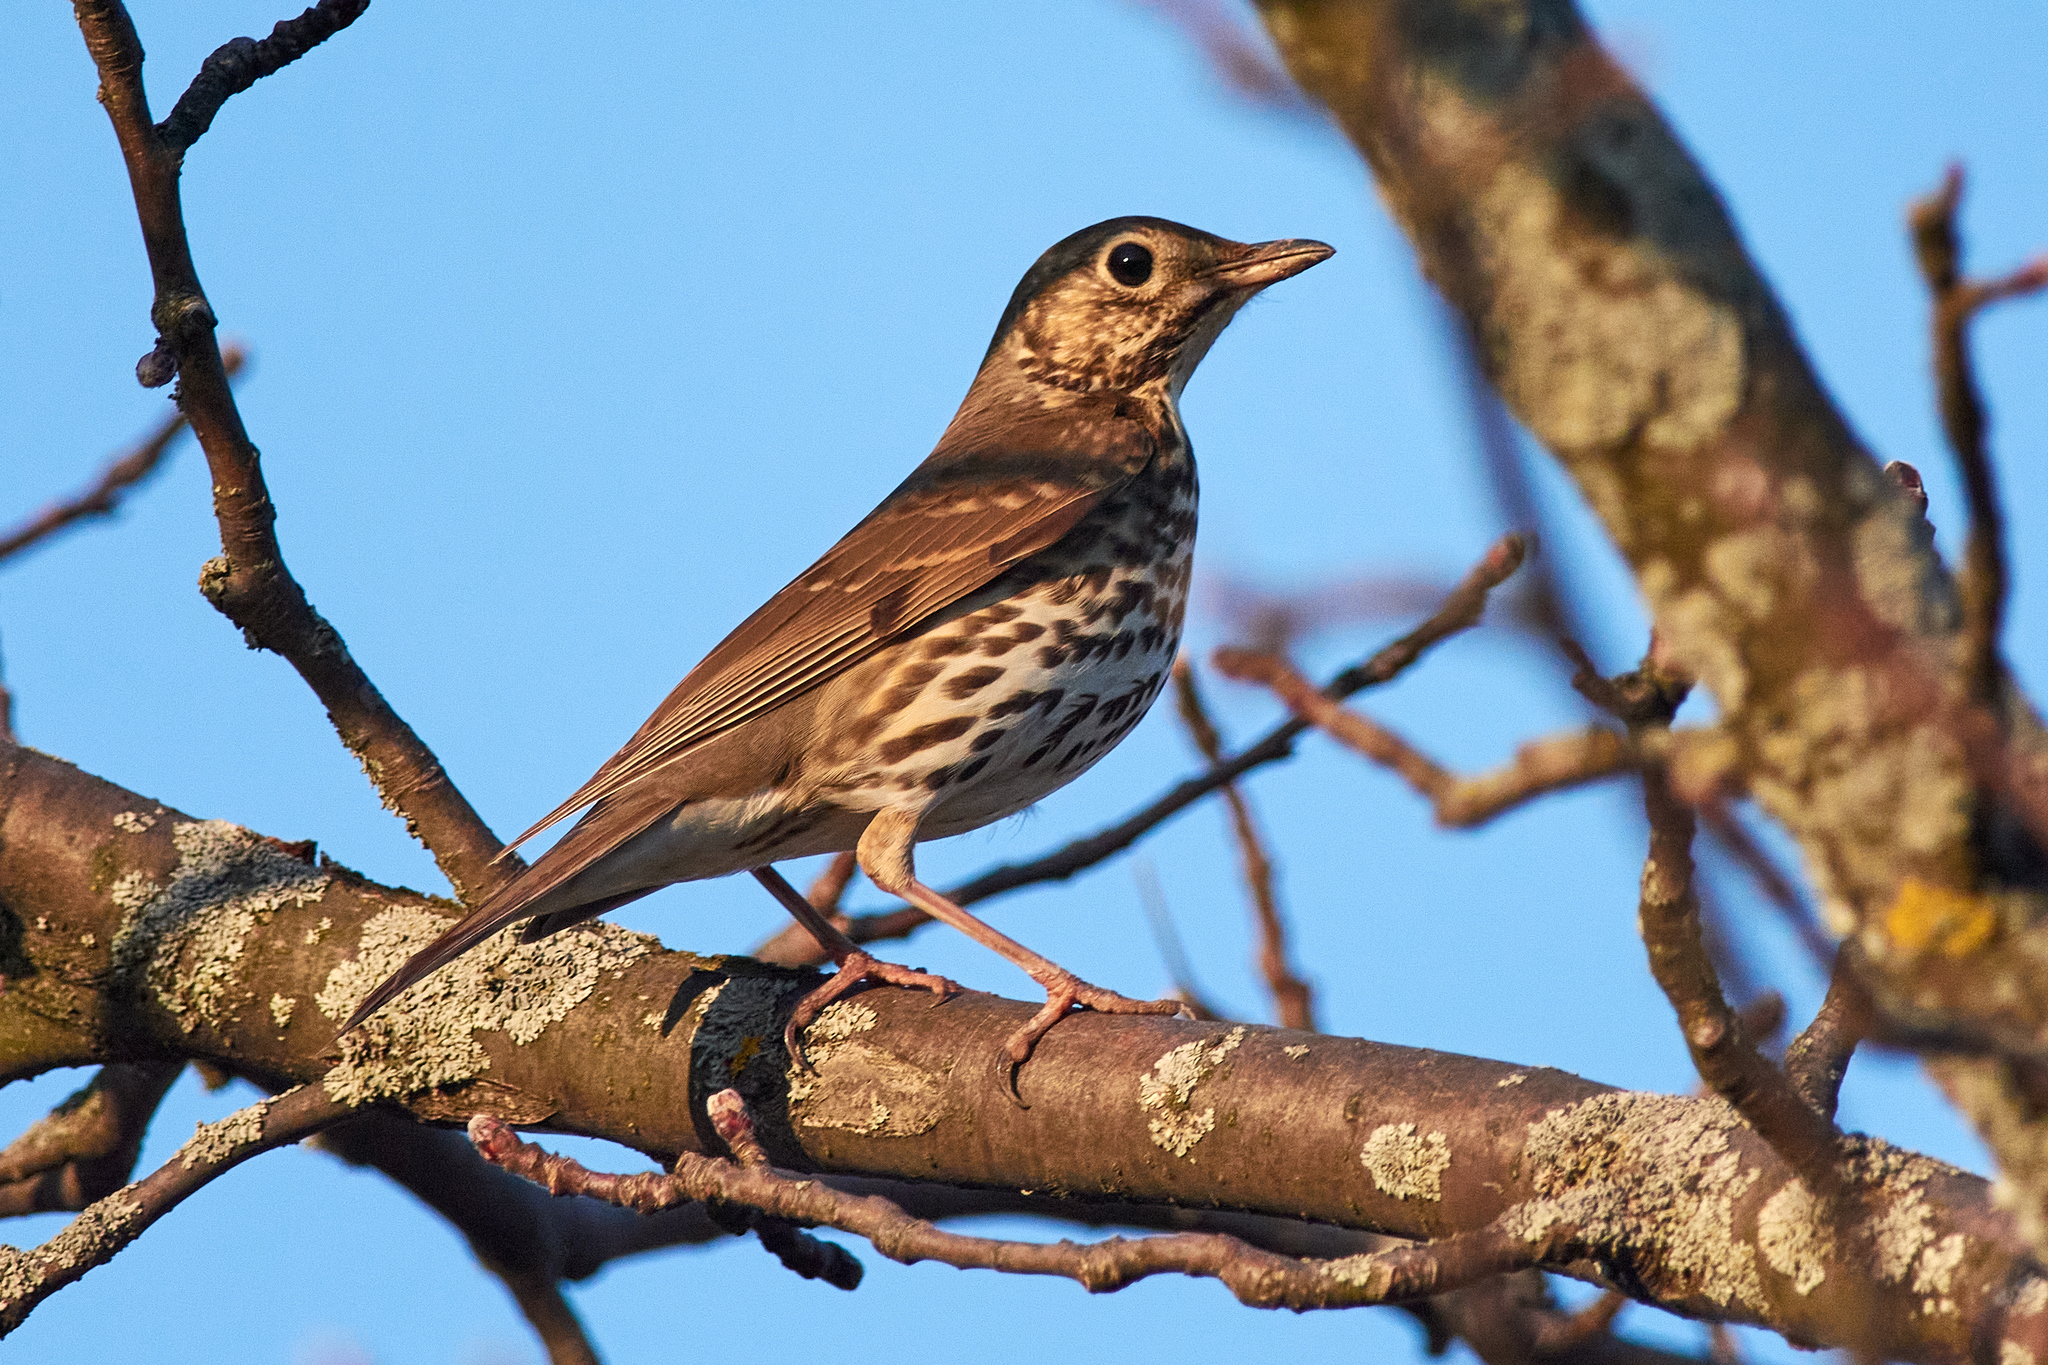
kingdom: Animalia
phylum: Chordata
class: Aves
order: Passeriformes
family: Turdidae
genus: Turdus
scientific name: Turdus philomelos
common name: Song thrush
